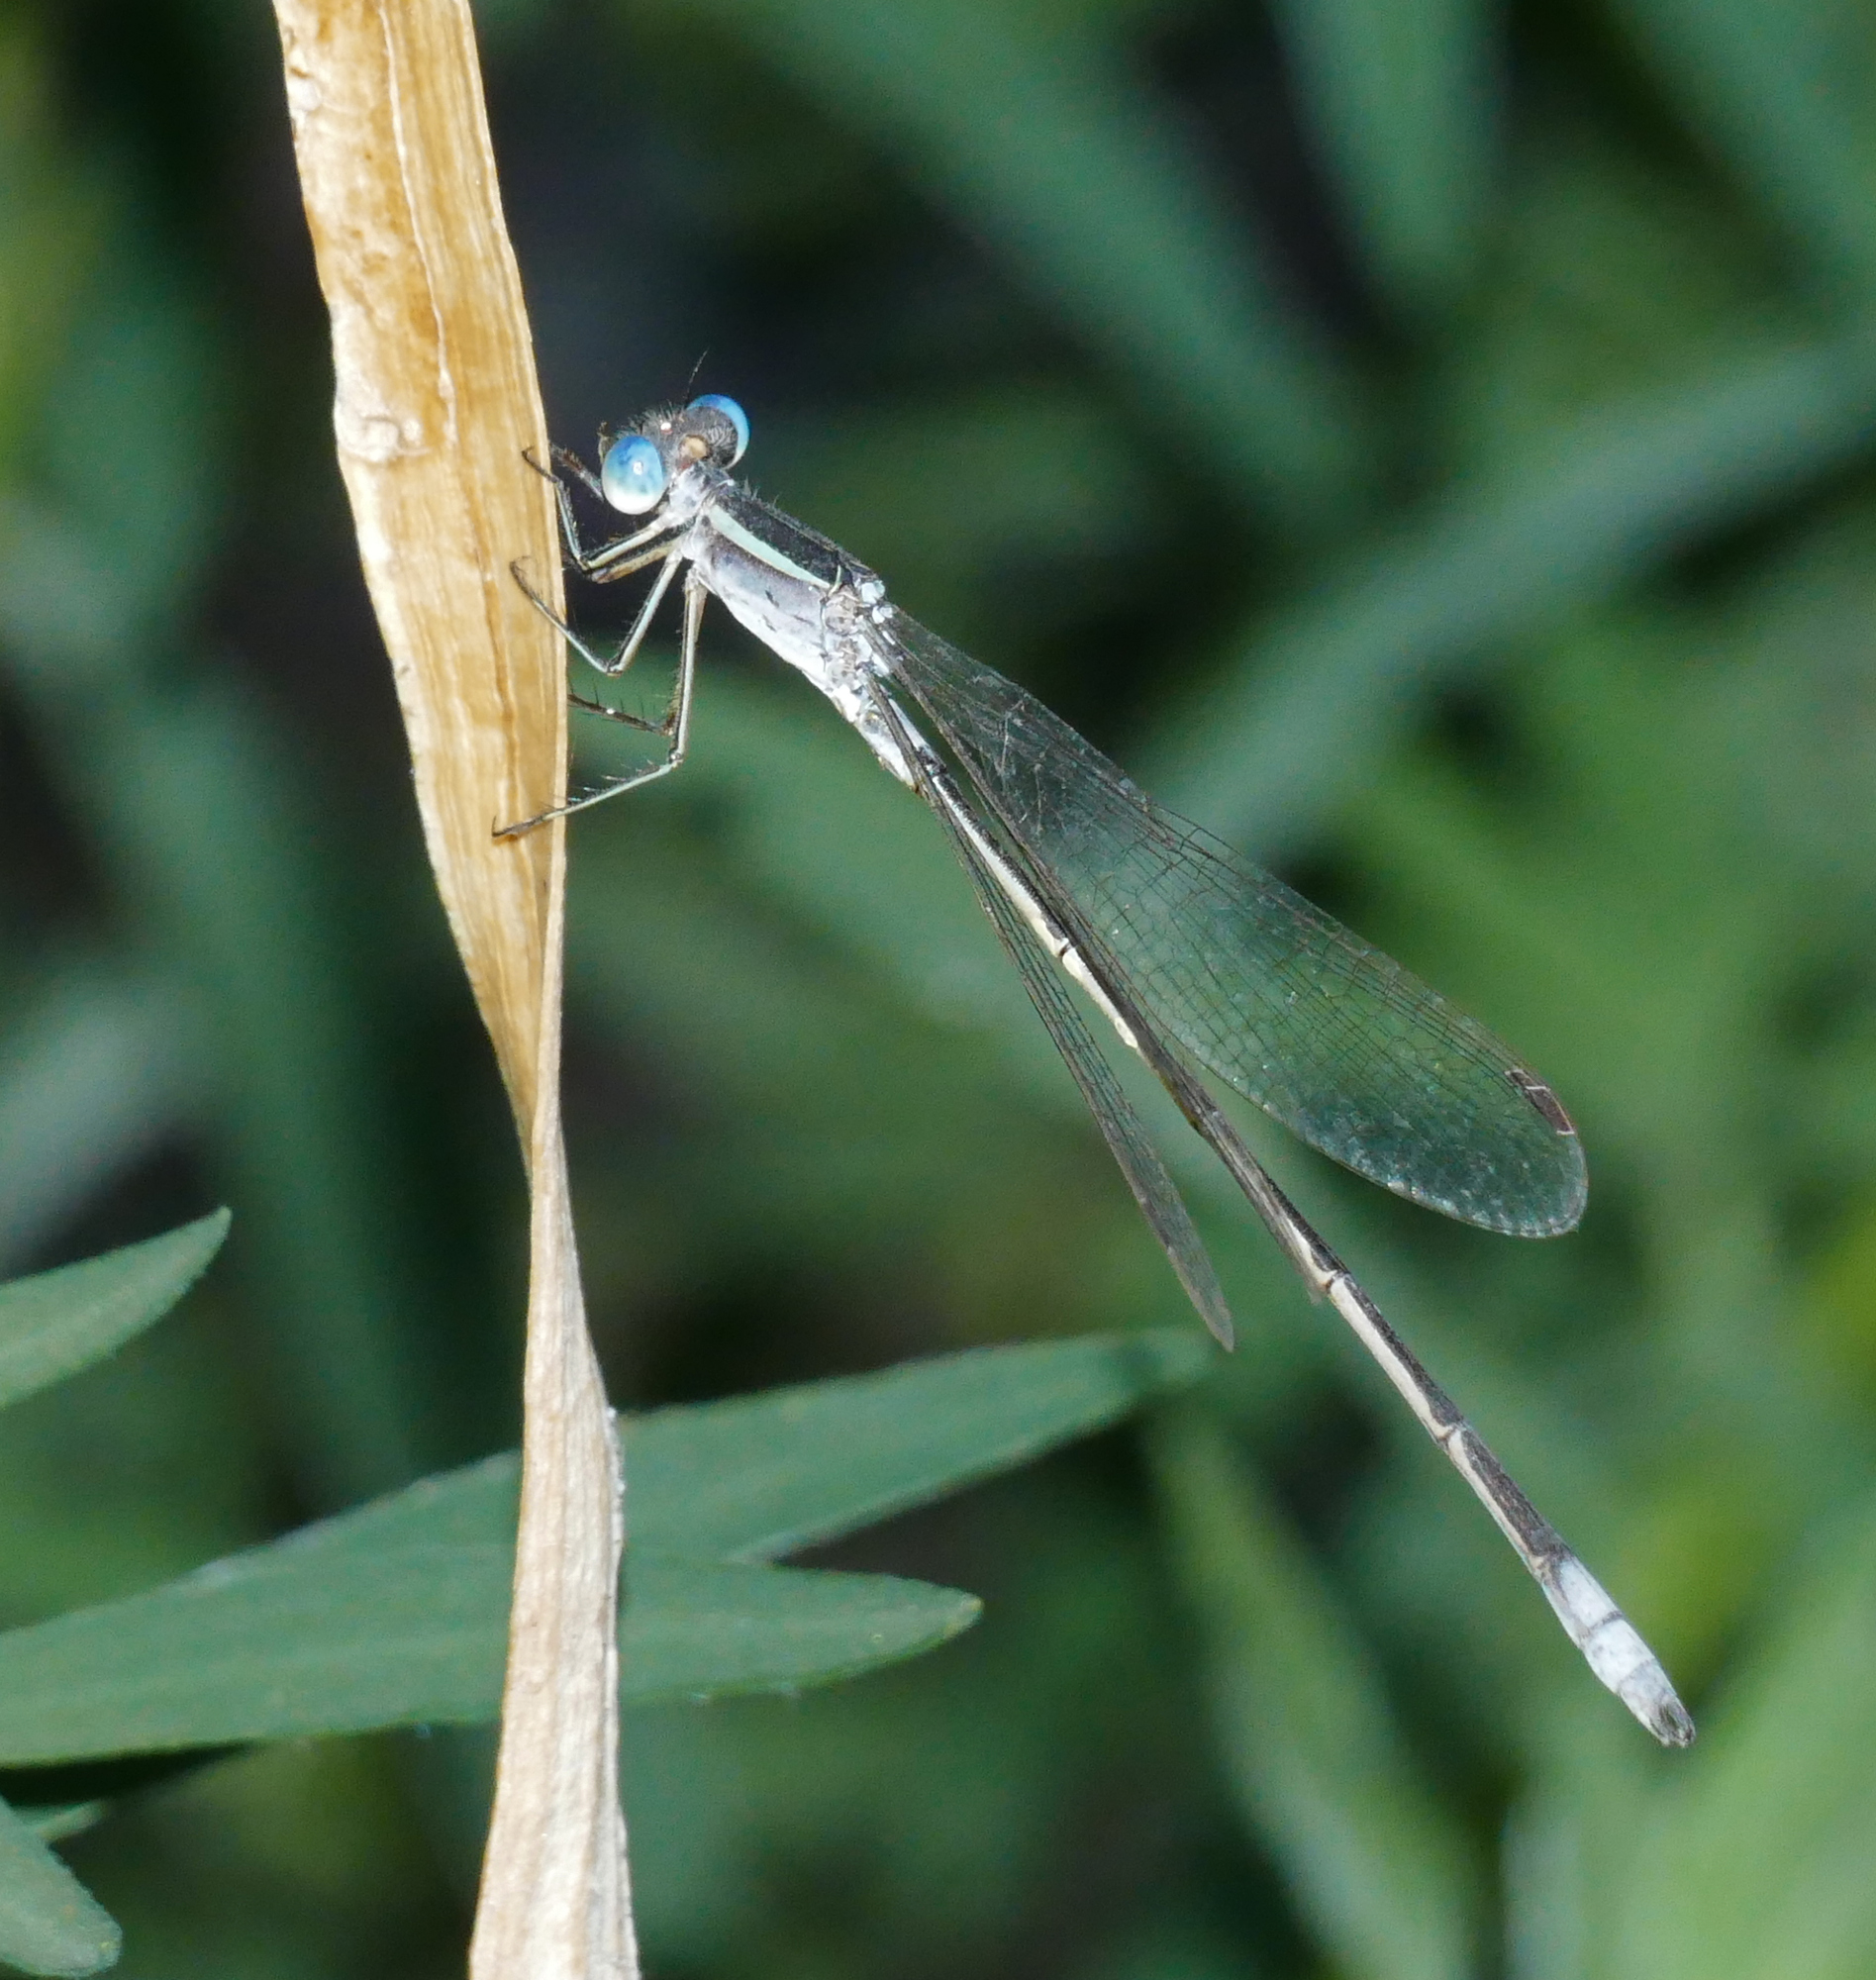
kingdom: Animalia
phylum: Arthropoda
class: Insecta
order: Odonata
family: Lestidae
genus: Lestes
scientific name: Lestes alacer
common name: Plateau spreadwing
